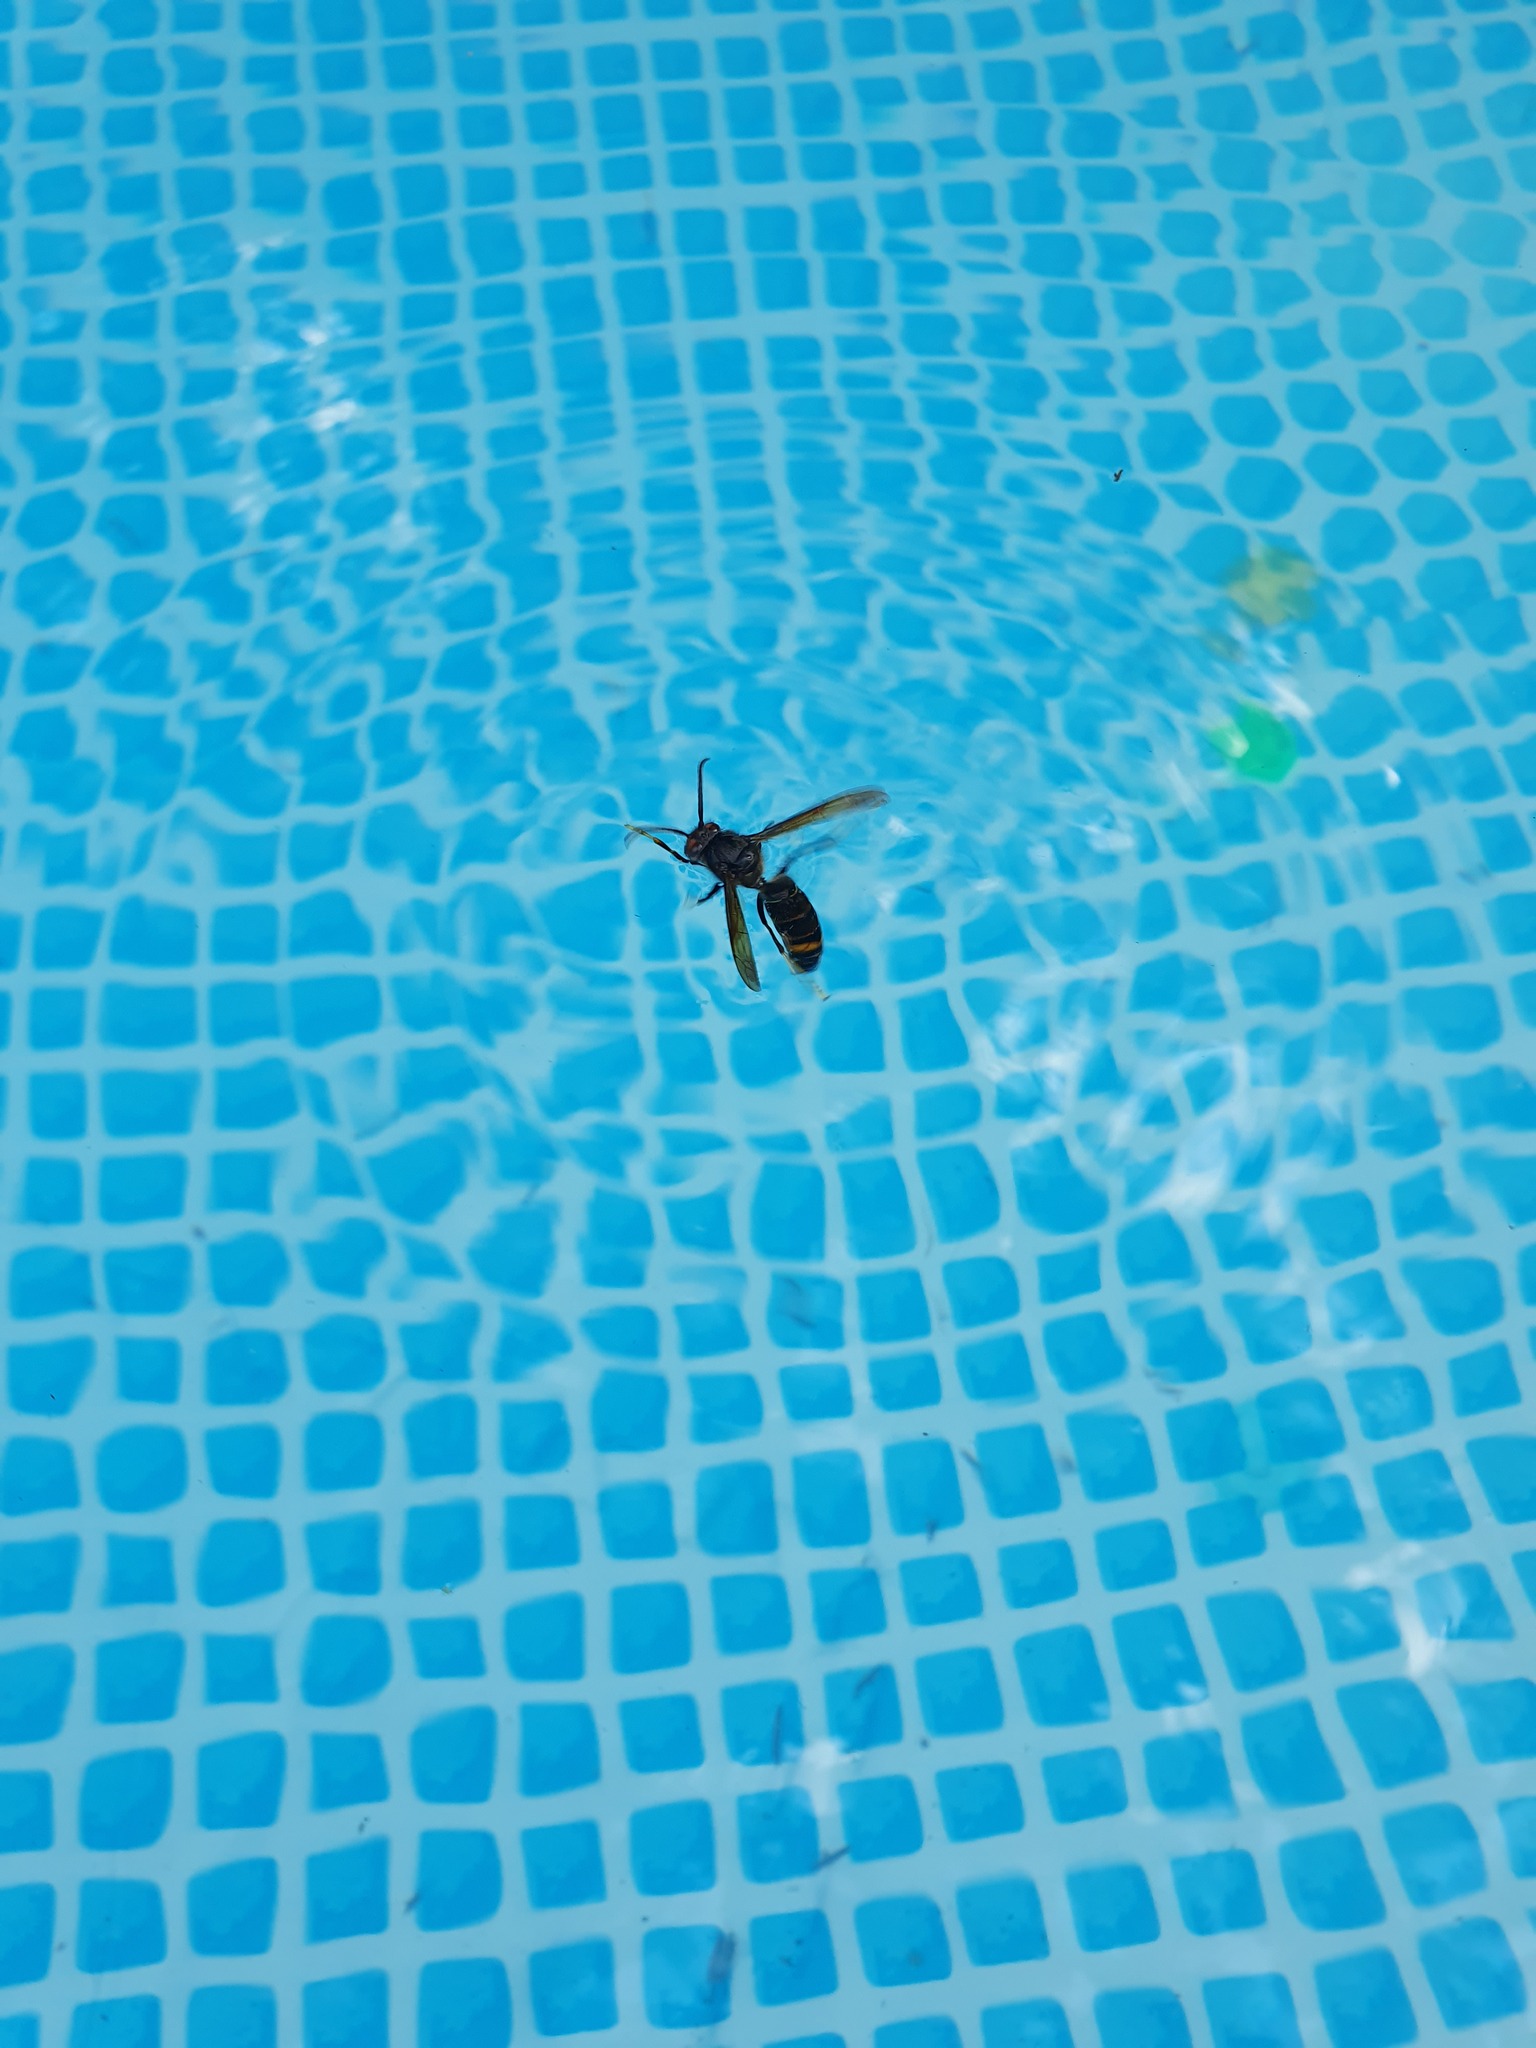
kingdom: Animalia
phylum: Arthropoda
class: Insecta
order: Hymenoptera
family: Vespidae
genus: Vespa
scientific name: Vespa velutina
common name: Asian hornet
